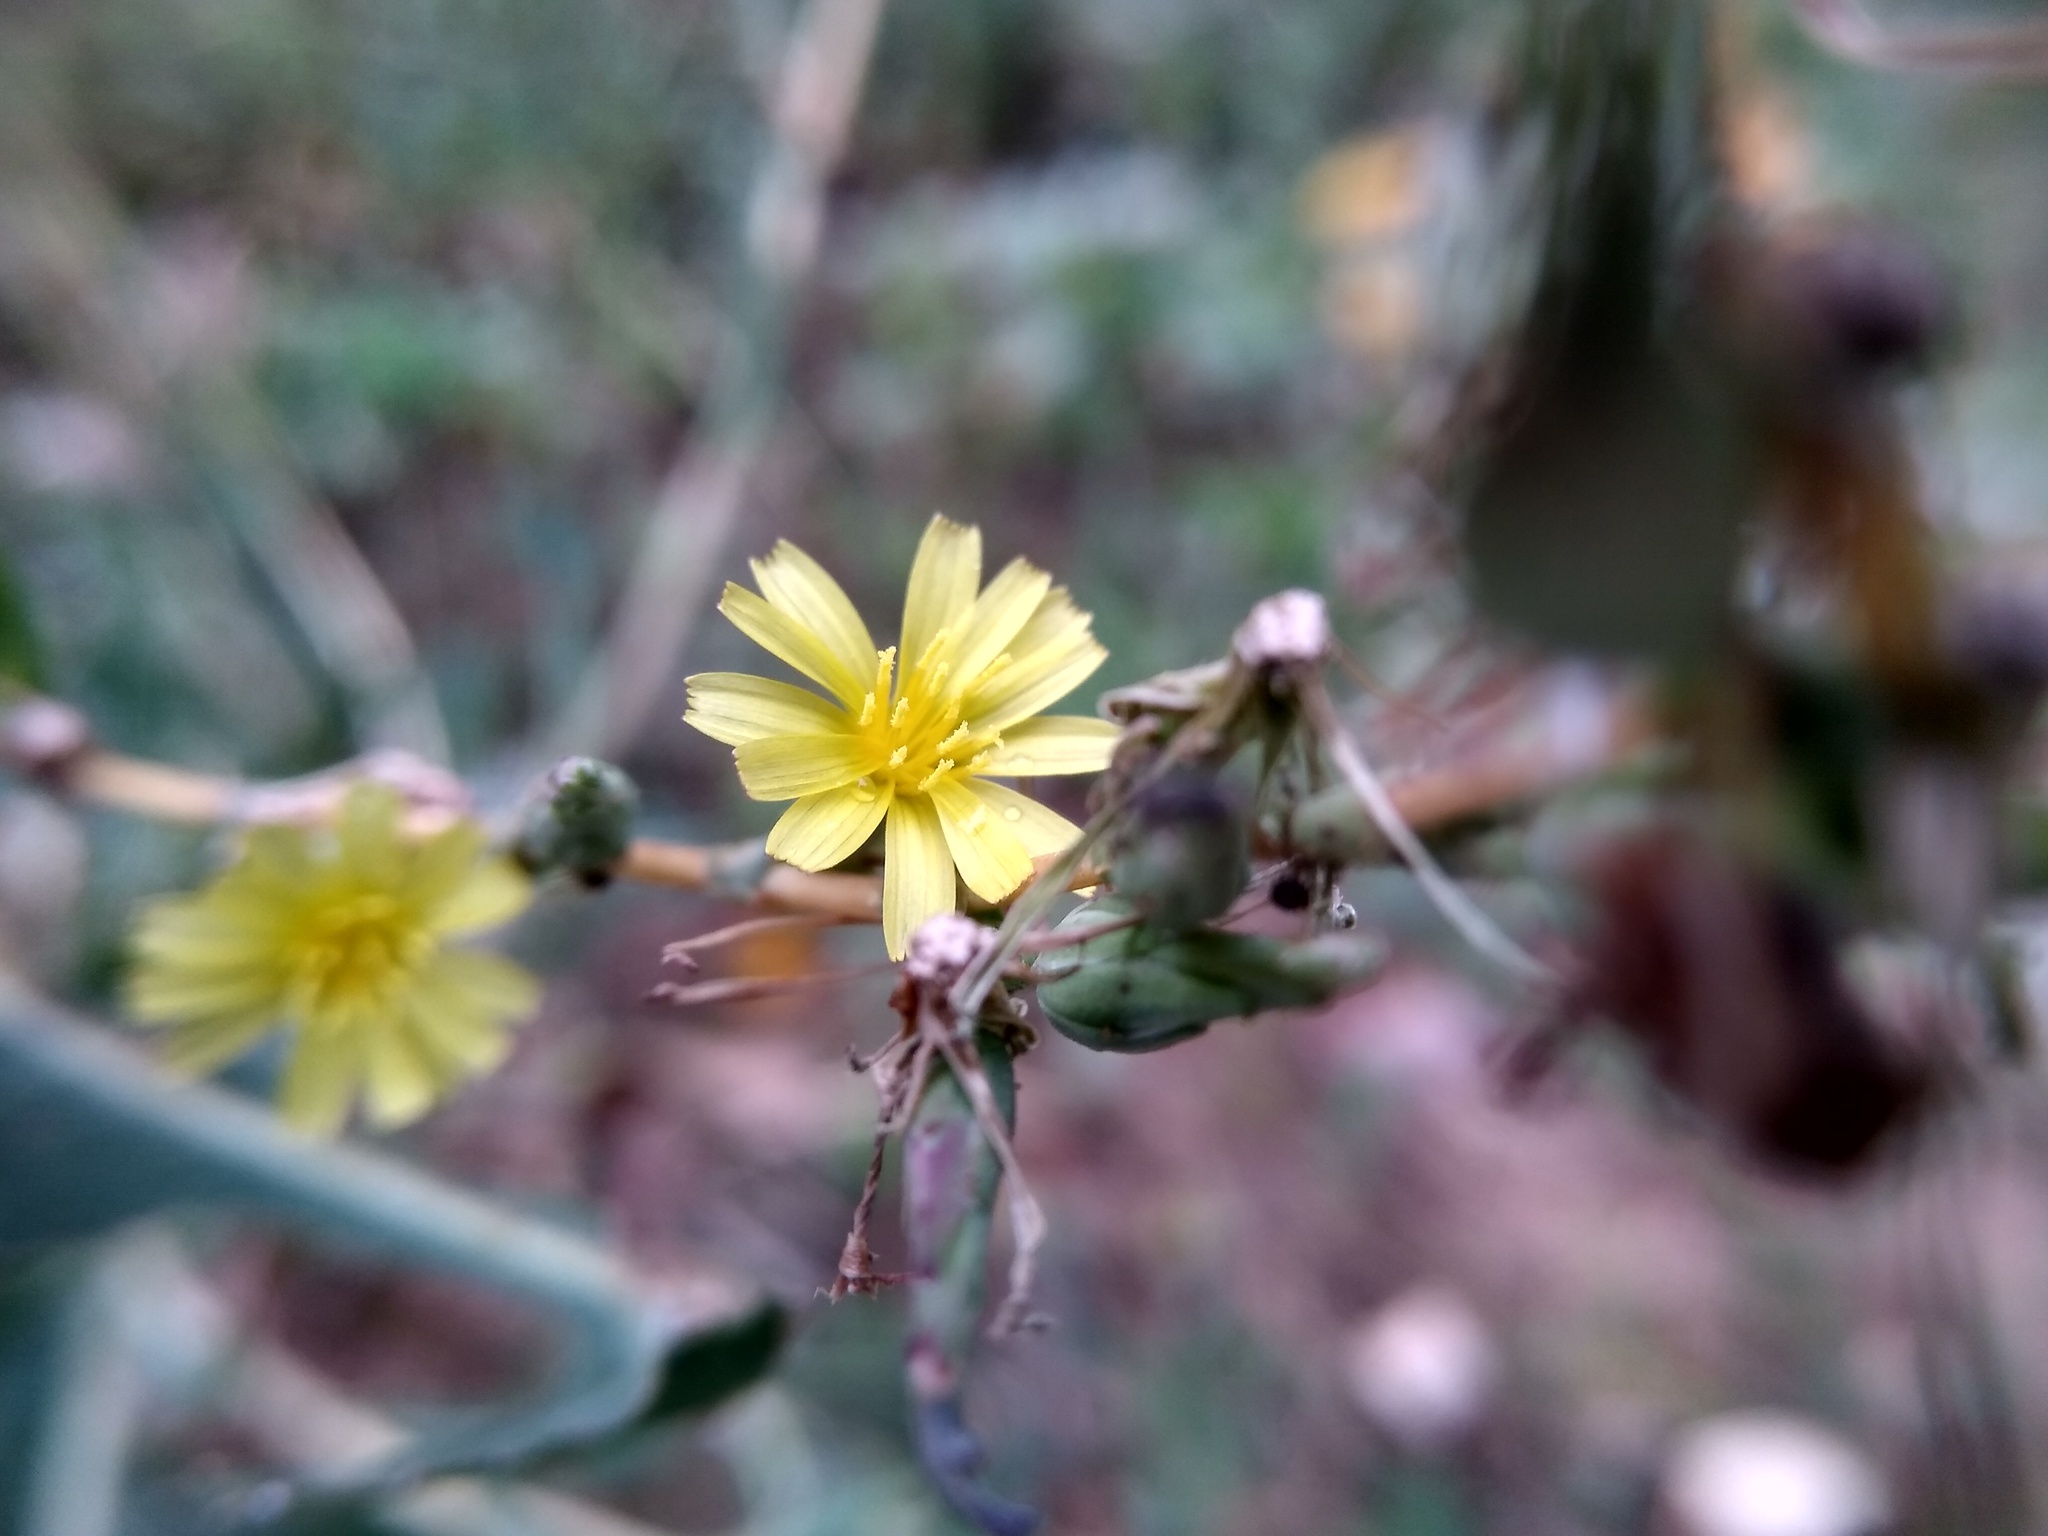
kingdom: Plantae
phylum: Tracheophyta
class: Magnoliopsida
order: Asterales
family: Asteraceae
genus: Lactuca
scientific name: Lactuca serriola
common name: Prickly lettuce
